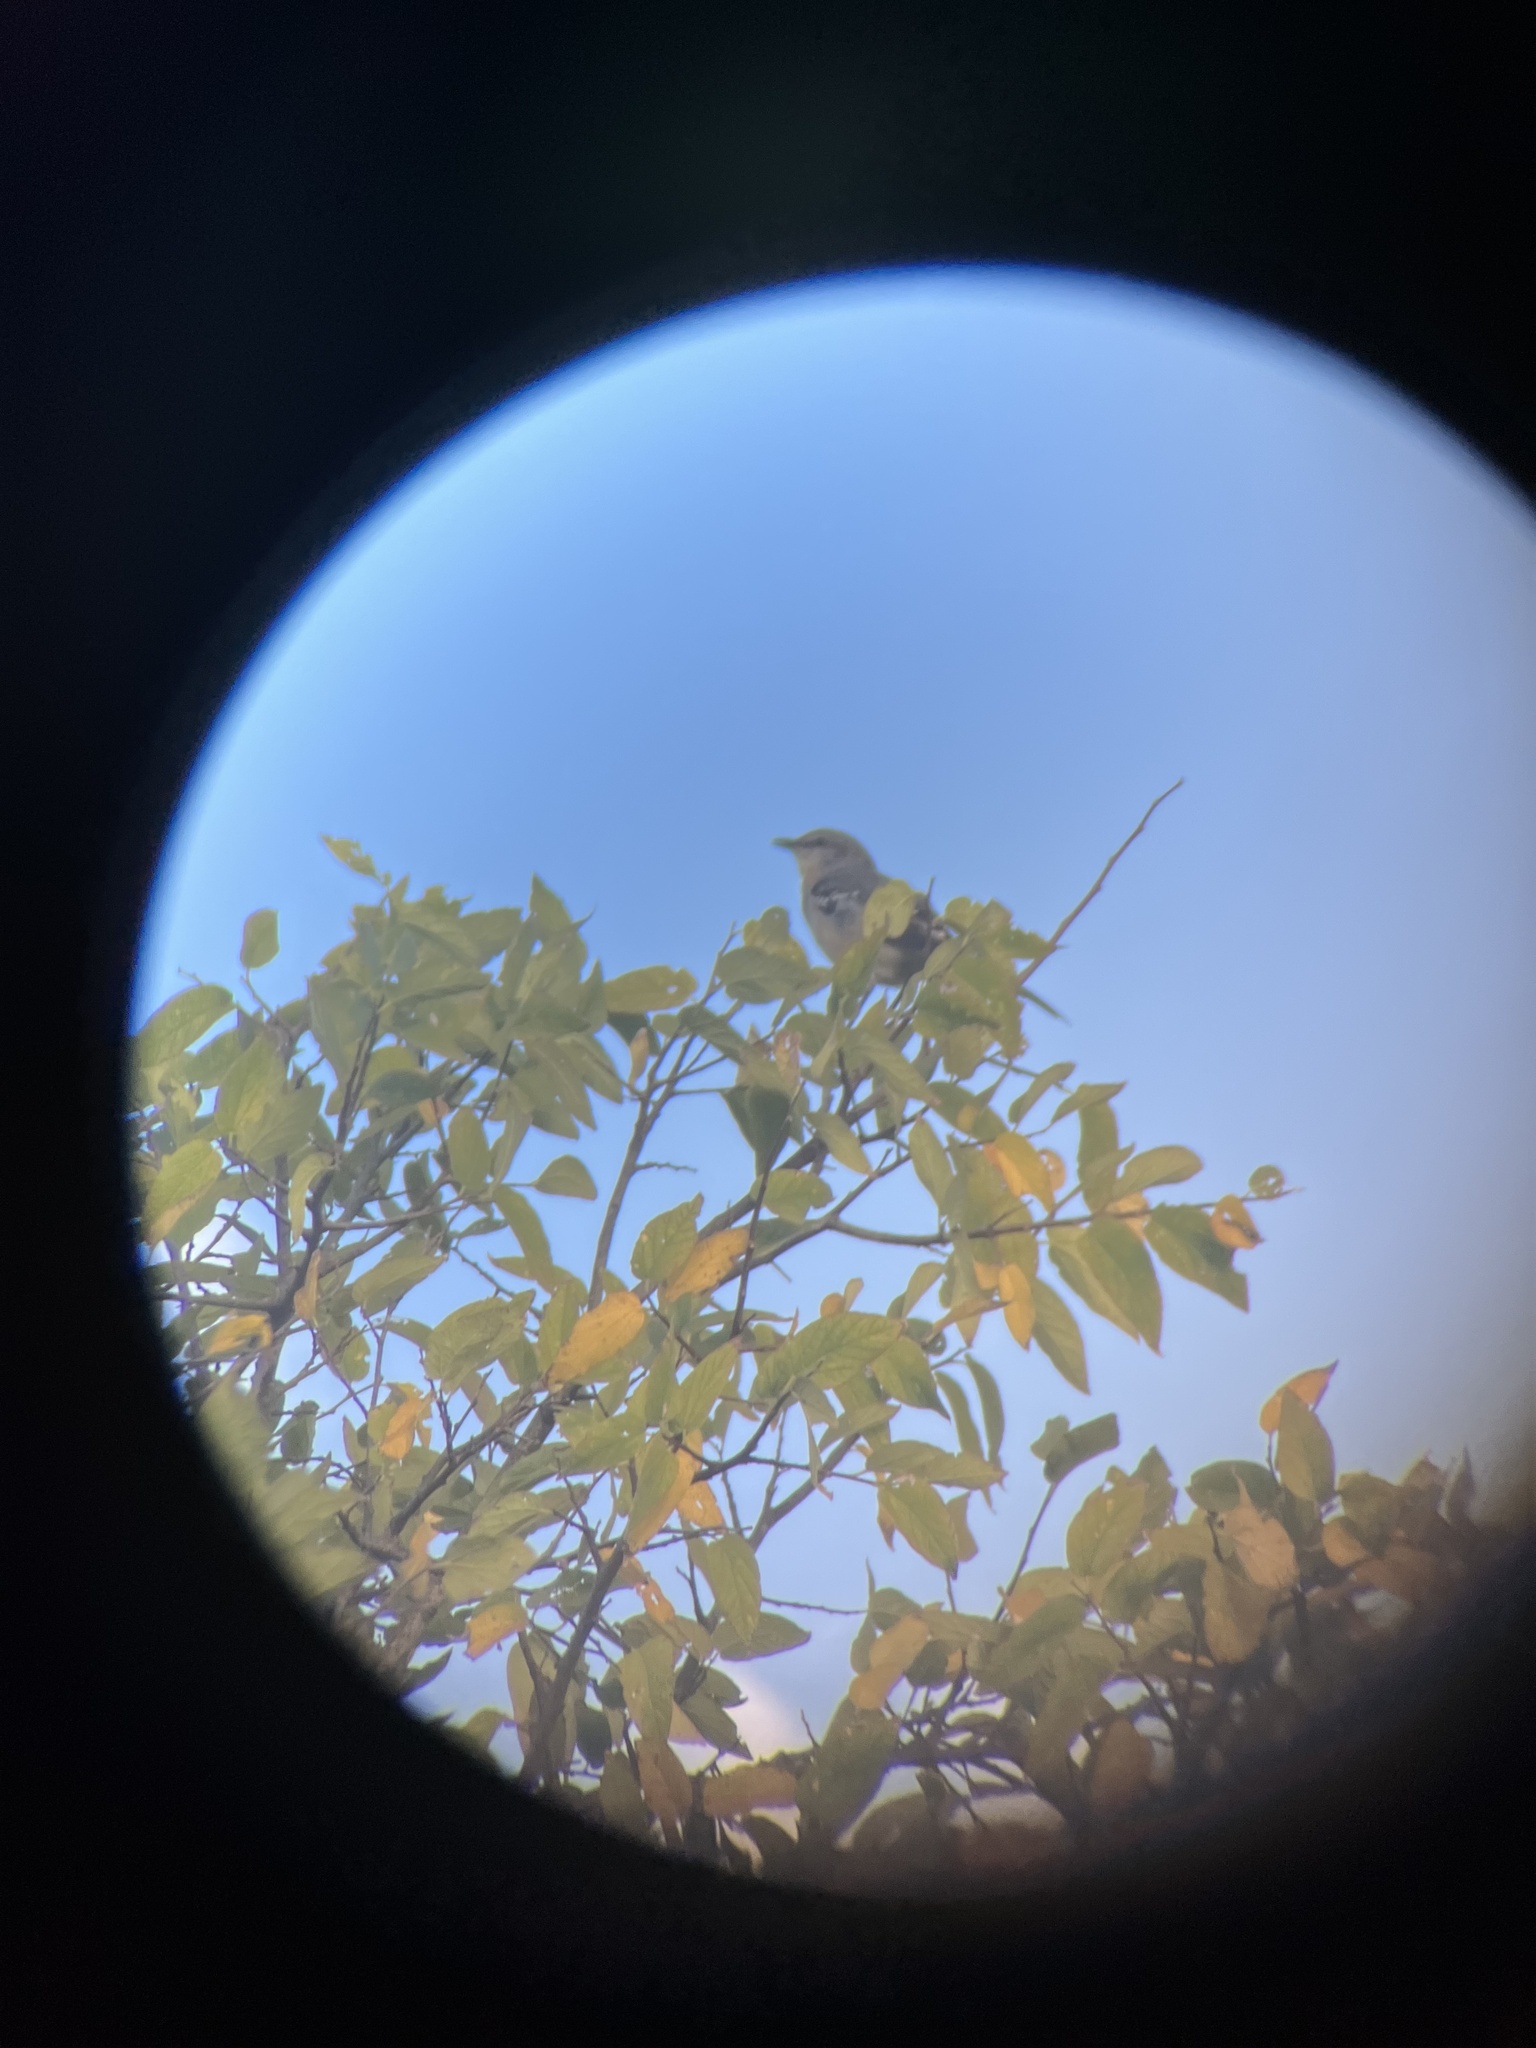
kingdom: Animalia
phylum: Chordata
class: Aves
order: Passeriformes
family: Mimidae
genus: Mimus
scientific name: Mimus polyglottos
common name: Northern mockingbird
